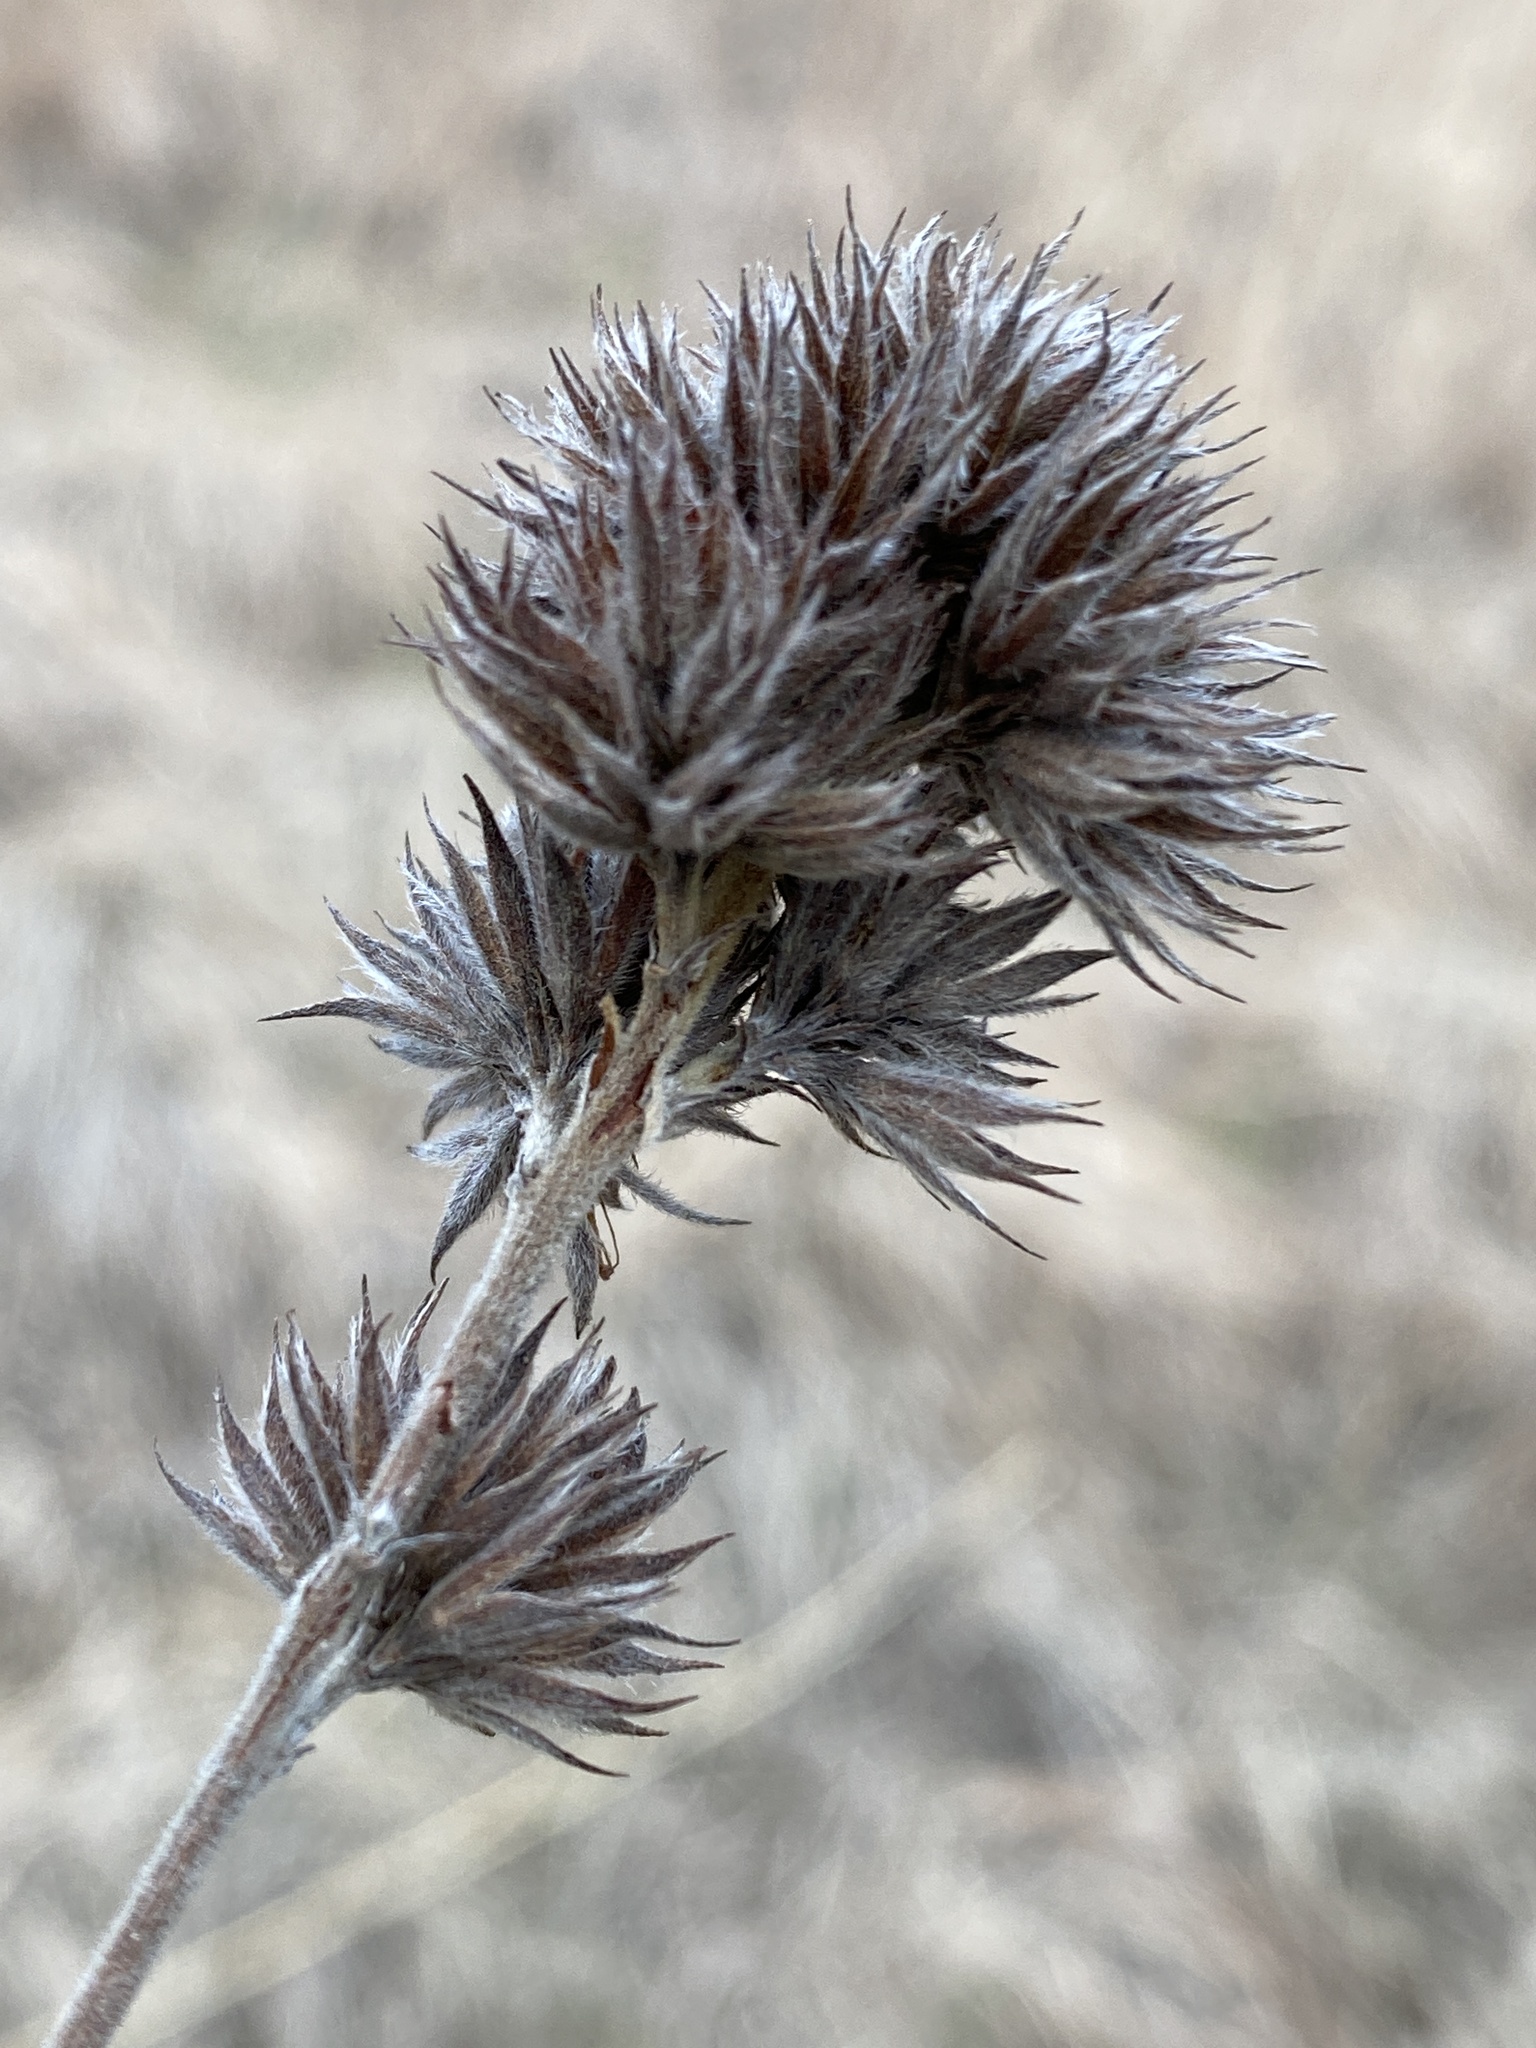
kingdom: Plantae
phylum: Tracheophyta
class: Magnoliopsida
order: Fabales
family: Fabaceae
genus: Lespedeza
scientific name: Lespedeza capitata
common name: Dusty clover
